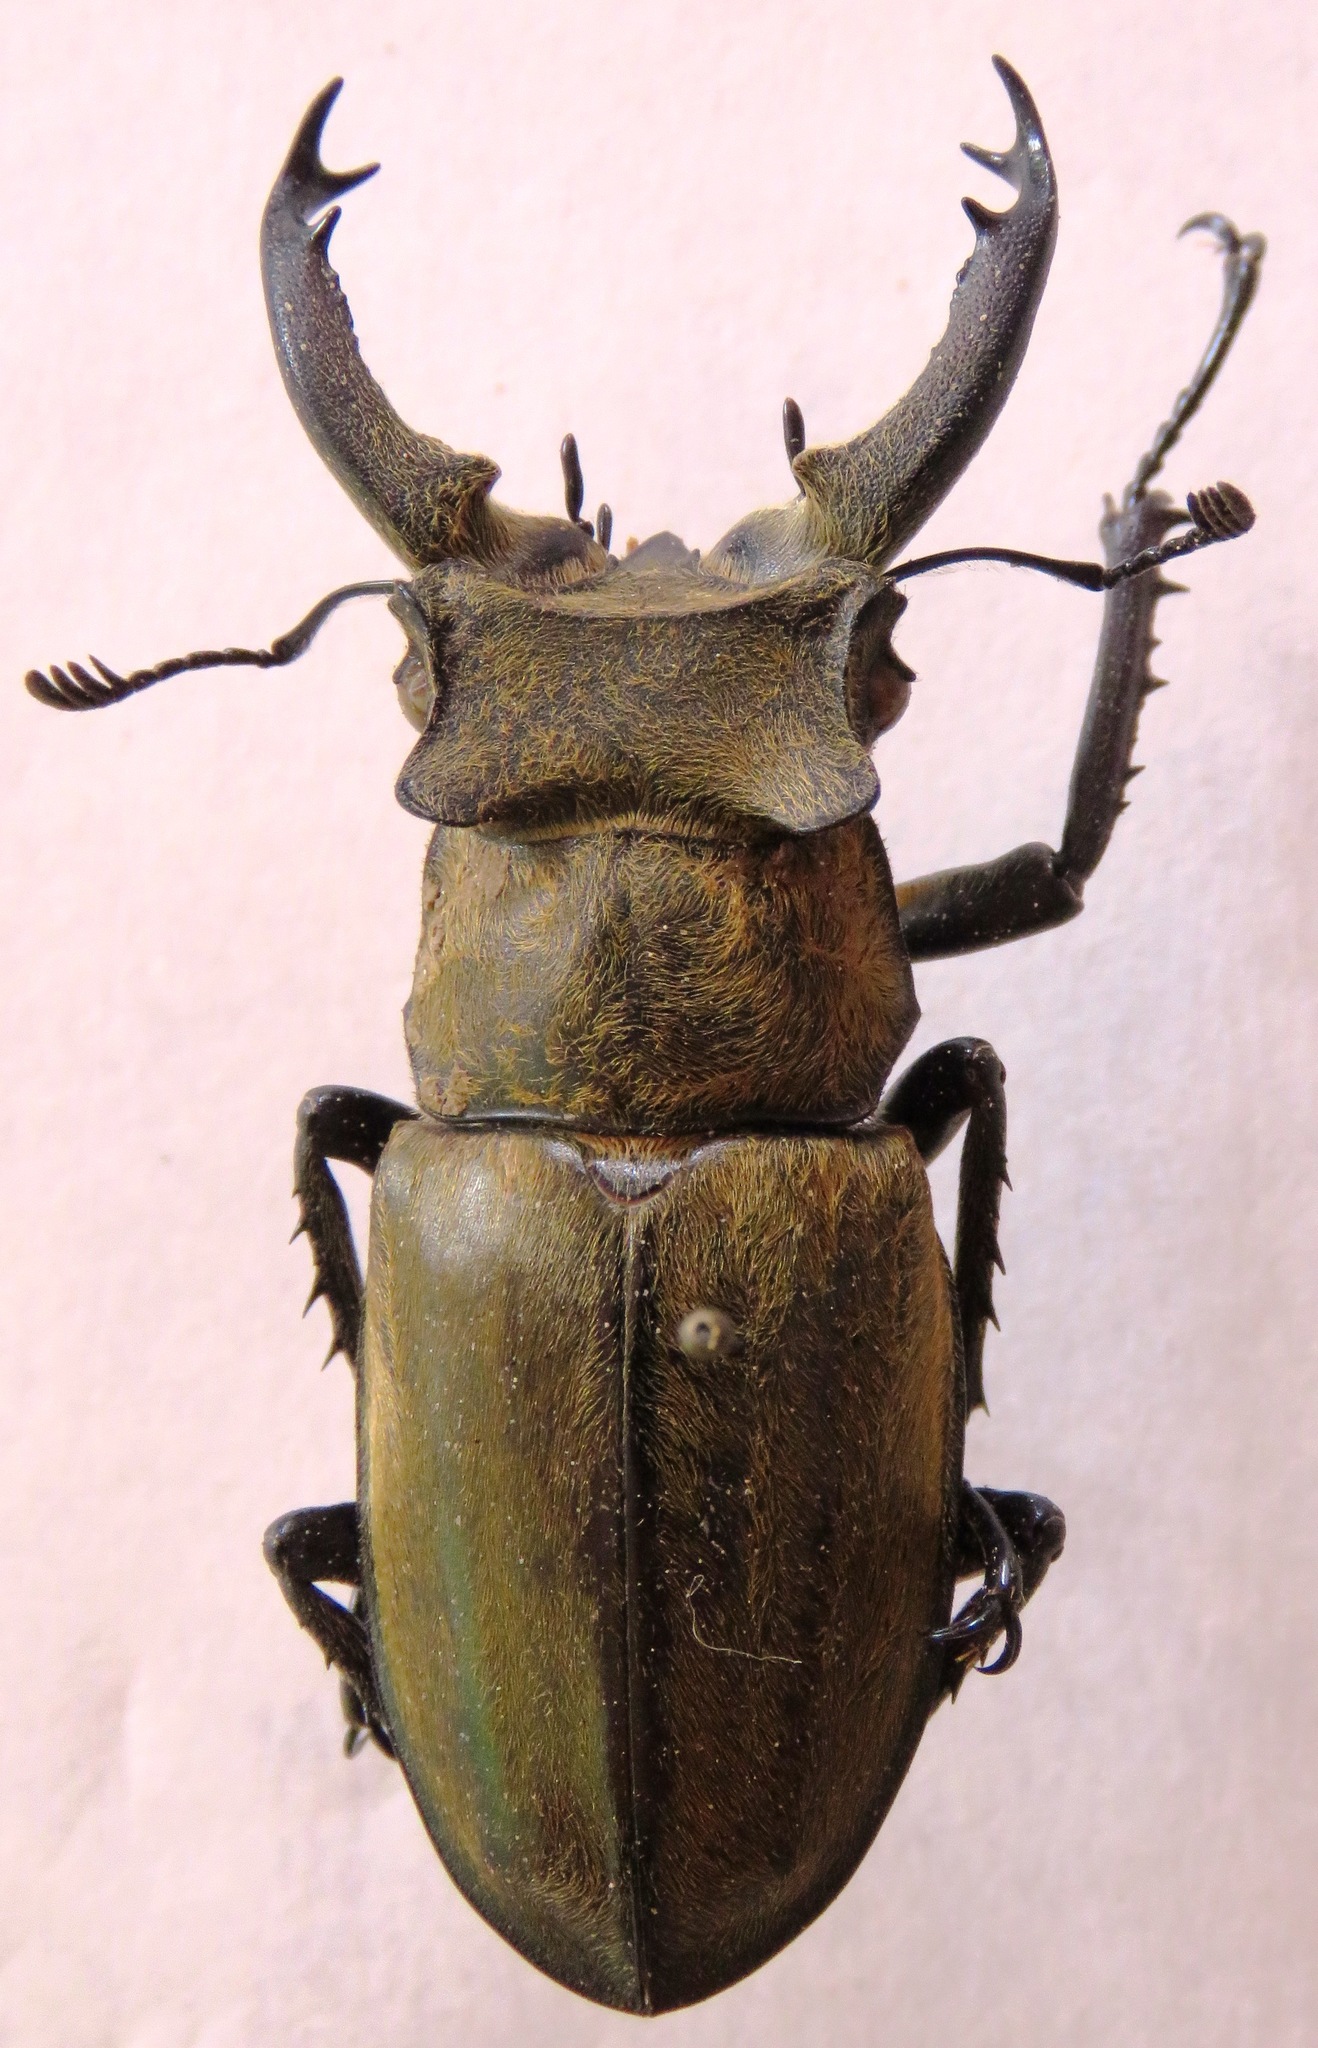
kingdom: Animalia
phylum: Arthropoda
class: Insecta
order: Coleoptera
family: Lucanidae
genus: Lucanus
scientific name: Lucanus sericeus
